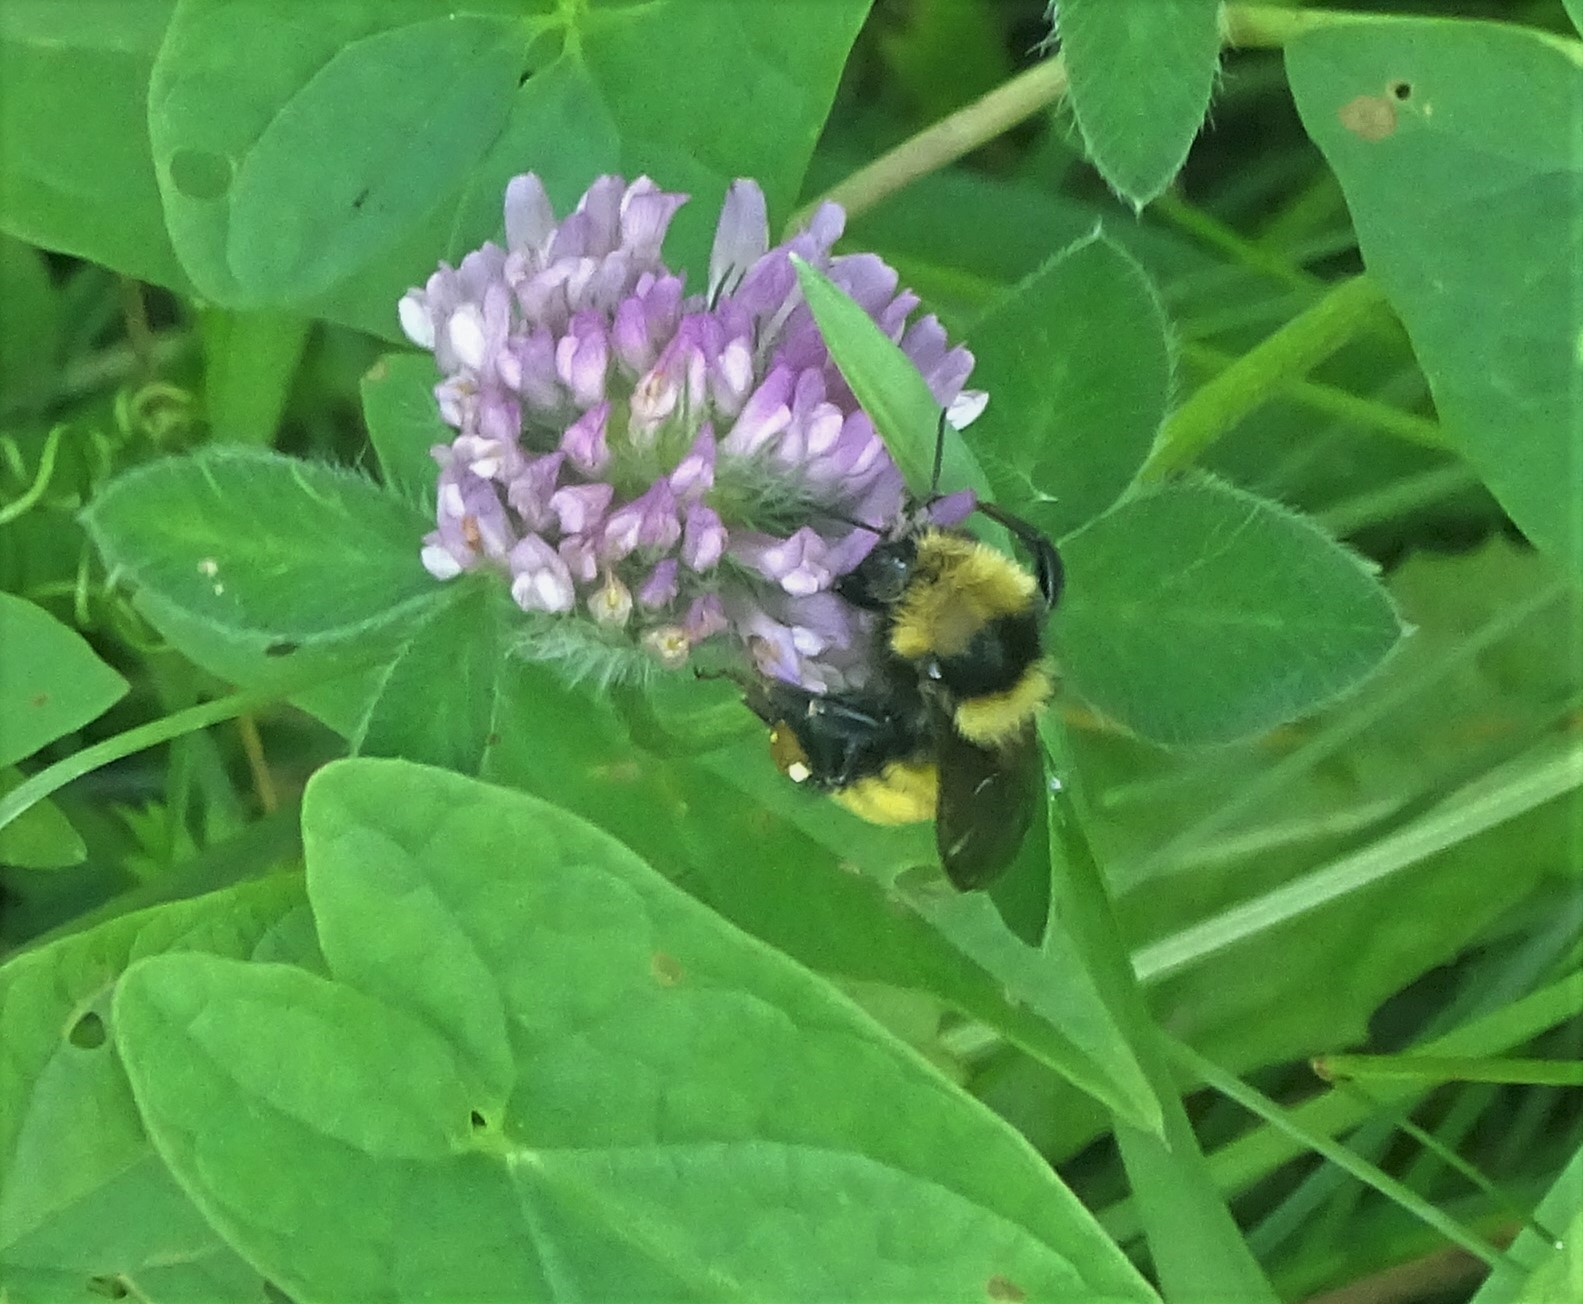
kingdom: Animalia
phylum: Arthropoda
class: Insecta
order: Hymenoptera
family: Apidae
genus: Bombus
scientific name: Bombus borealis
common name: Northern amber bumble bee
